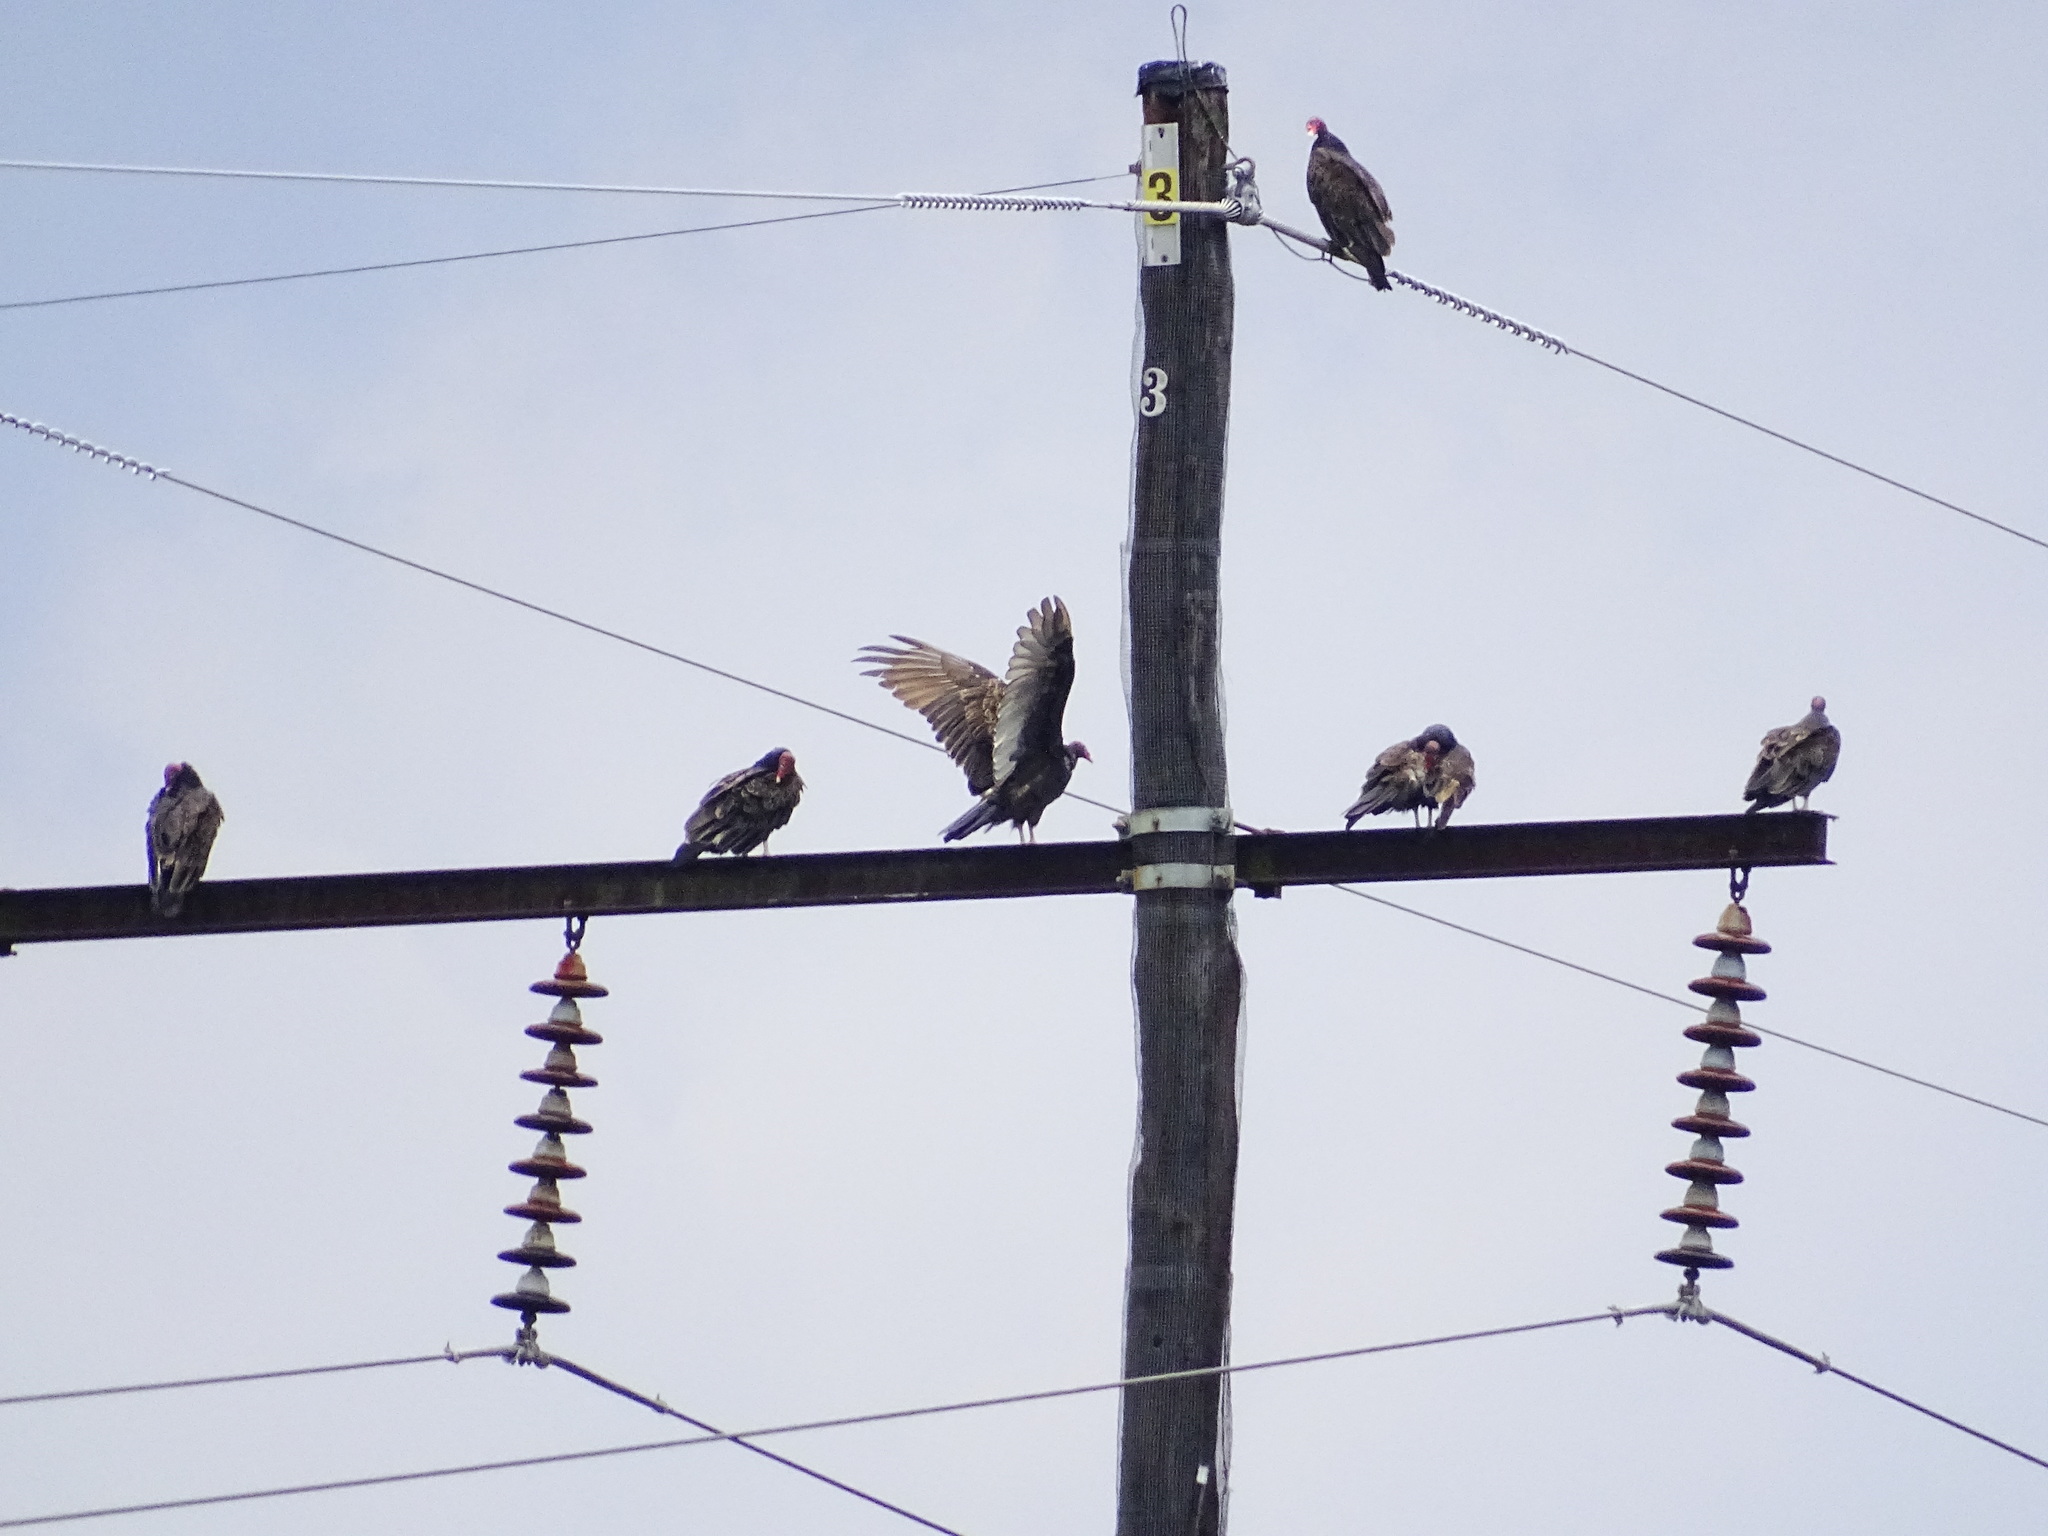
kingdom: Animalia
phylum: Chordata
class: Aves
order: Accipitriformes
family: Cathartidae
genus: Cathartes
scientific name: Cathartes aura
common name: Turkey vulture
